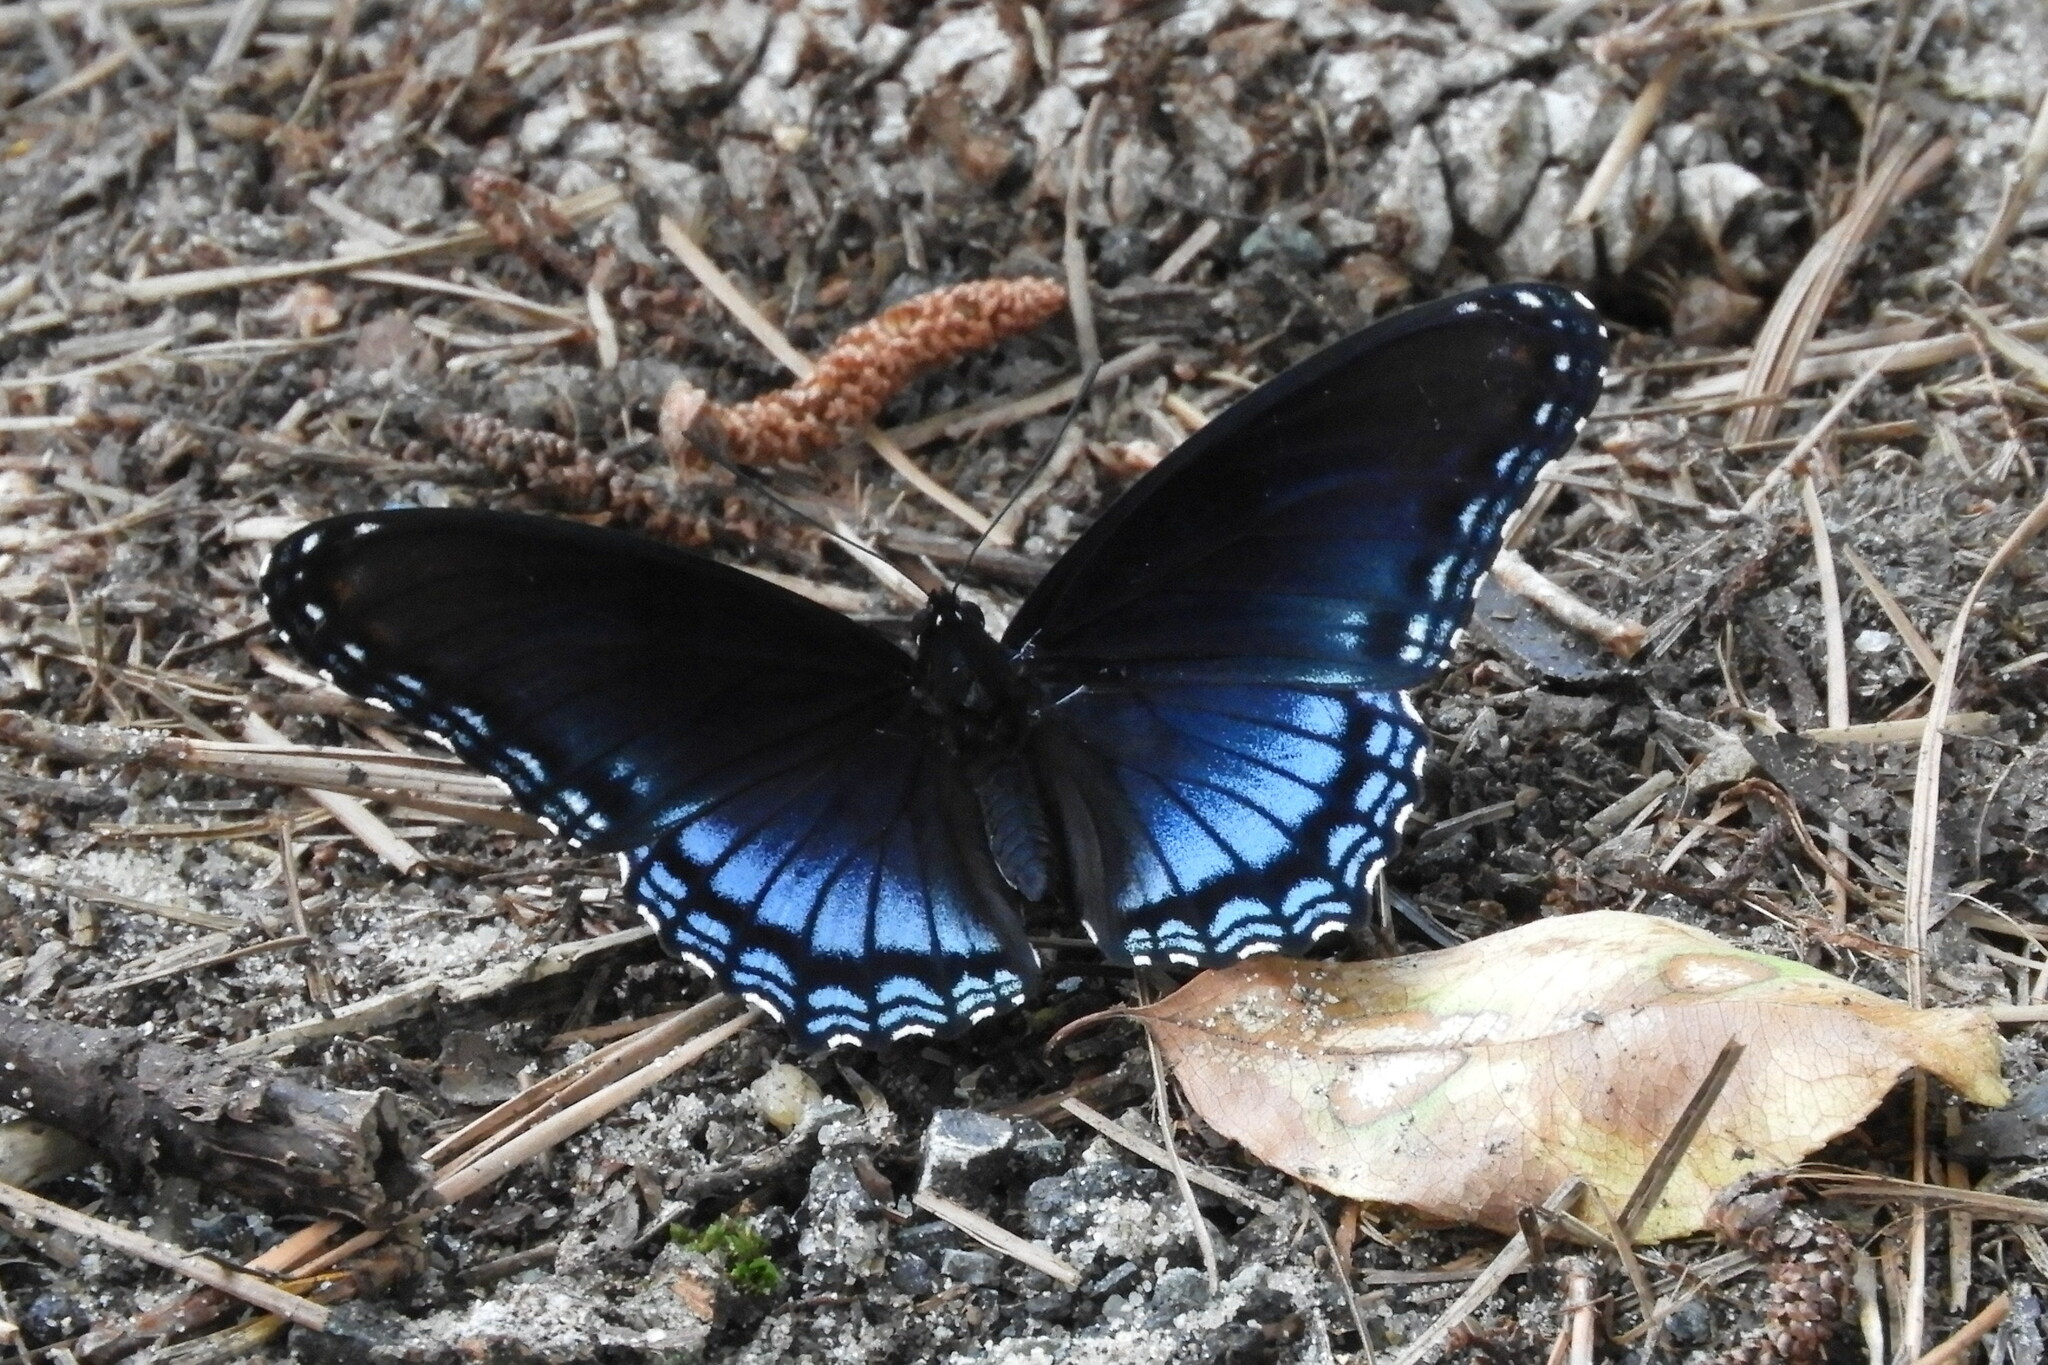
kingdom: Animalia
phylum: Arthropoda
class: Insecta
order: Lepidoptera
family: Nymphalidae
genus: Limenitis
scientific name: Limenitis astyanax
